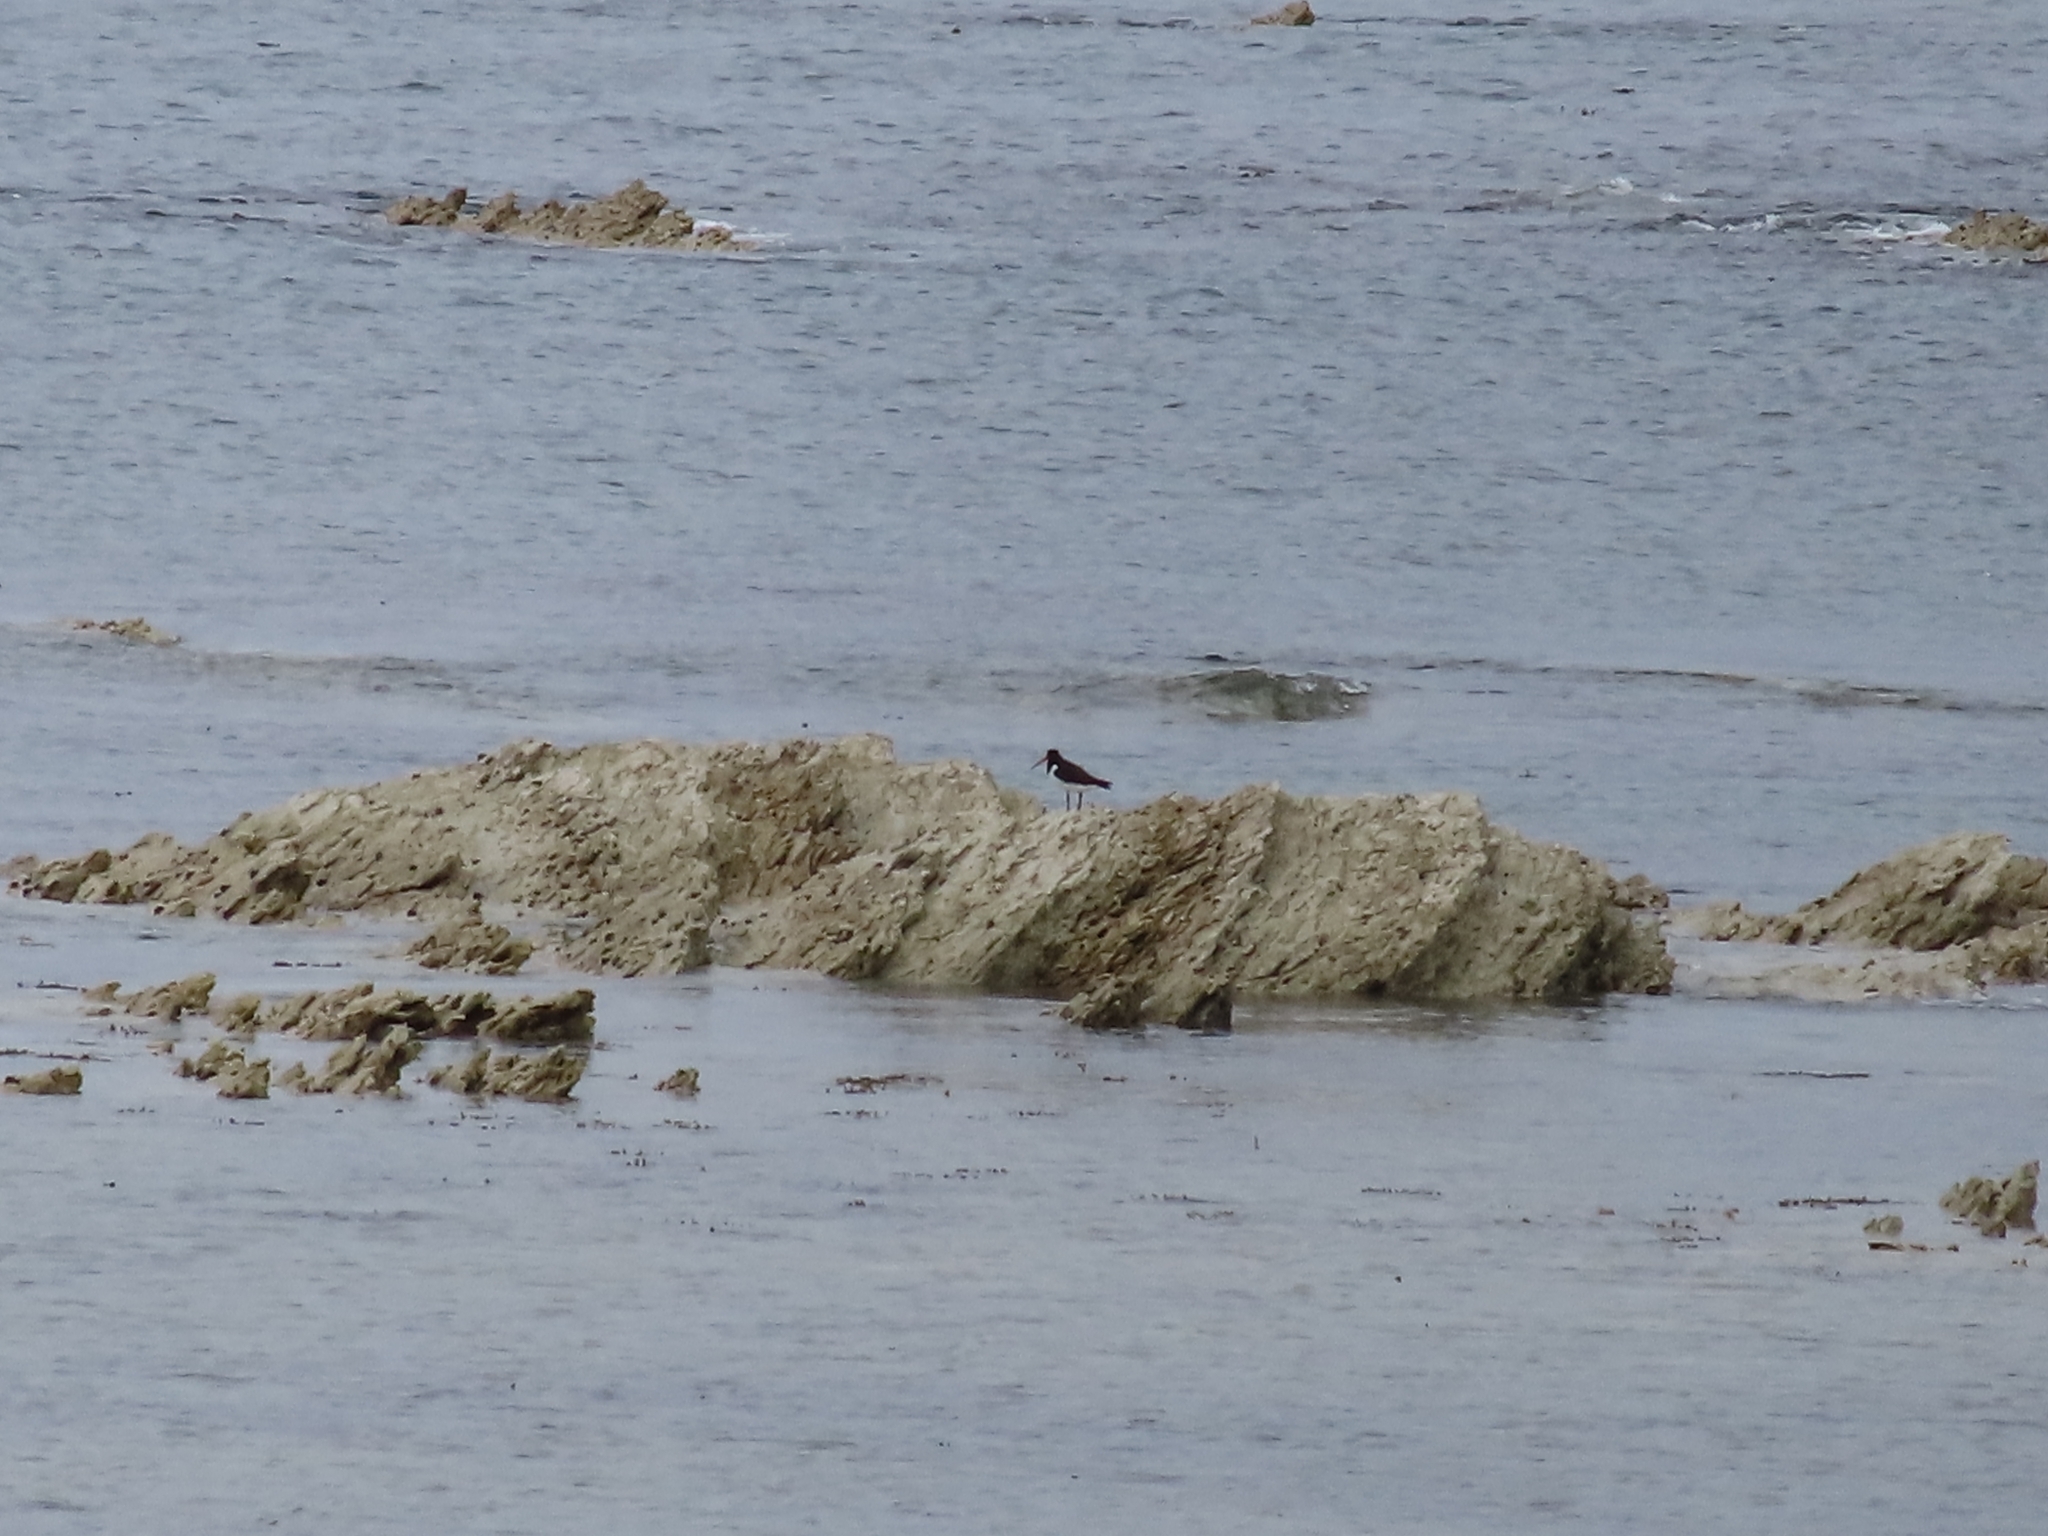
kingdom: Animalia
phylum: Chordata
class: Aves
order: Charadriiformes
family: Haematopodidae
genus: Haematopus
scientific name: Haematopus finschi
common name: South island oystercatcher
